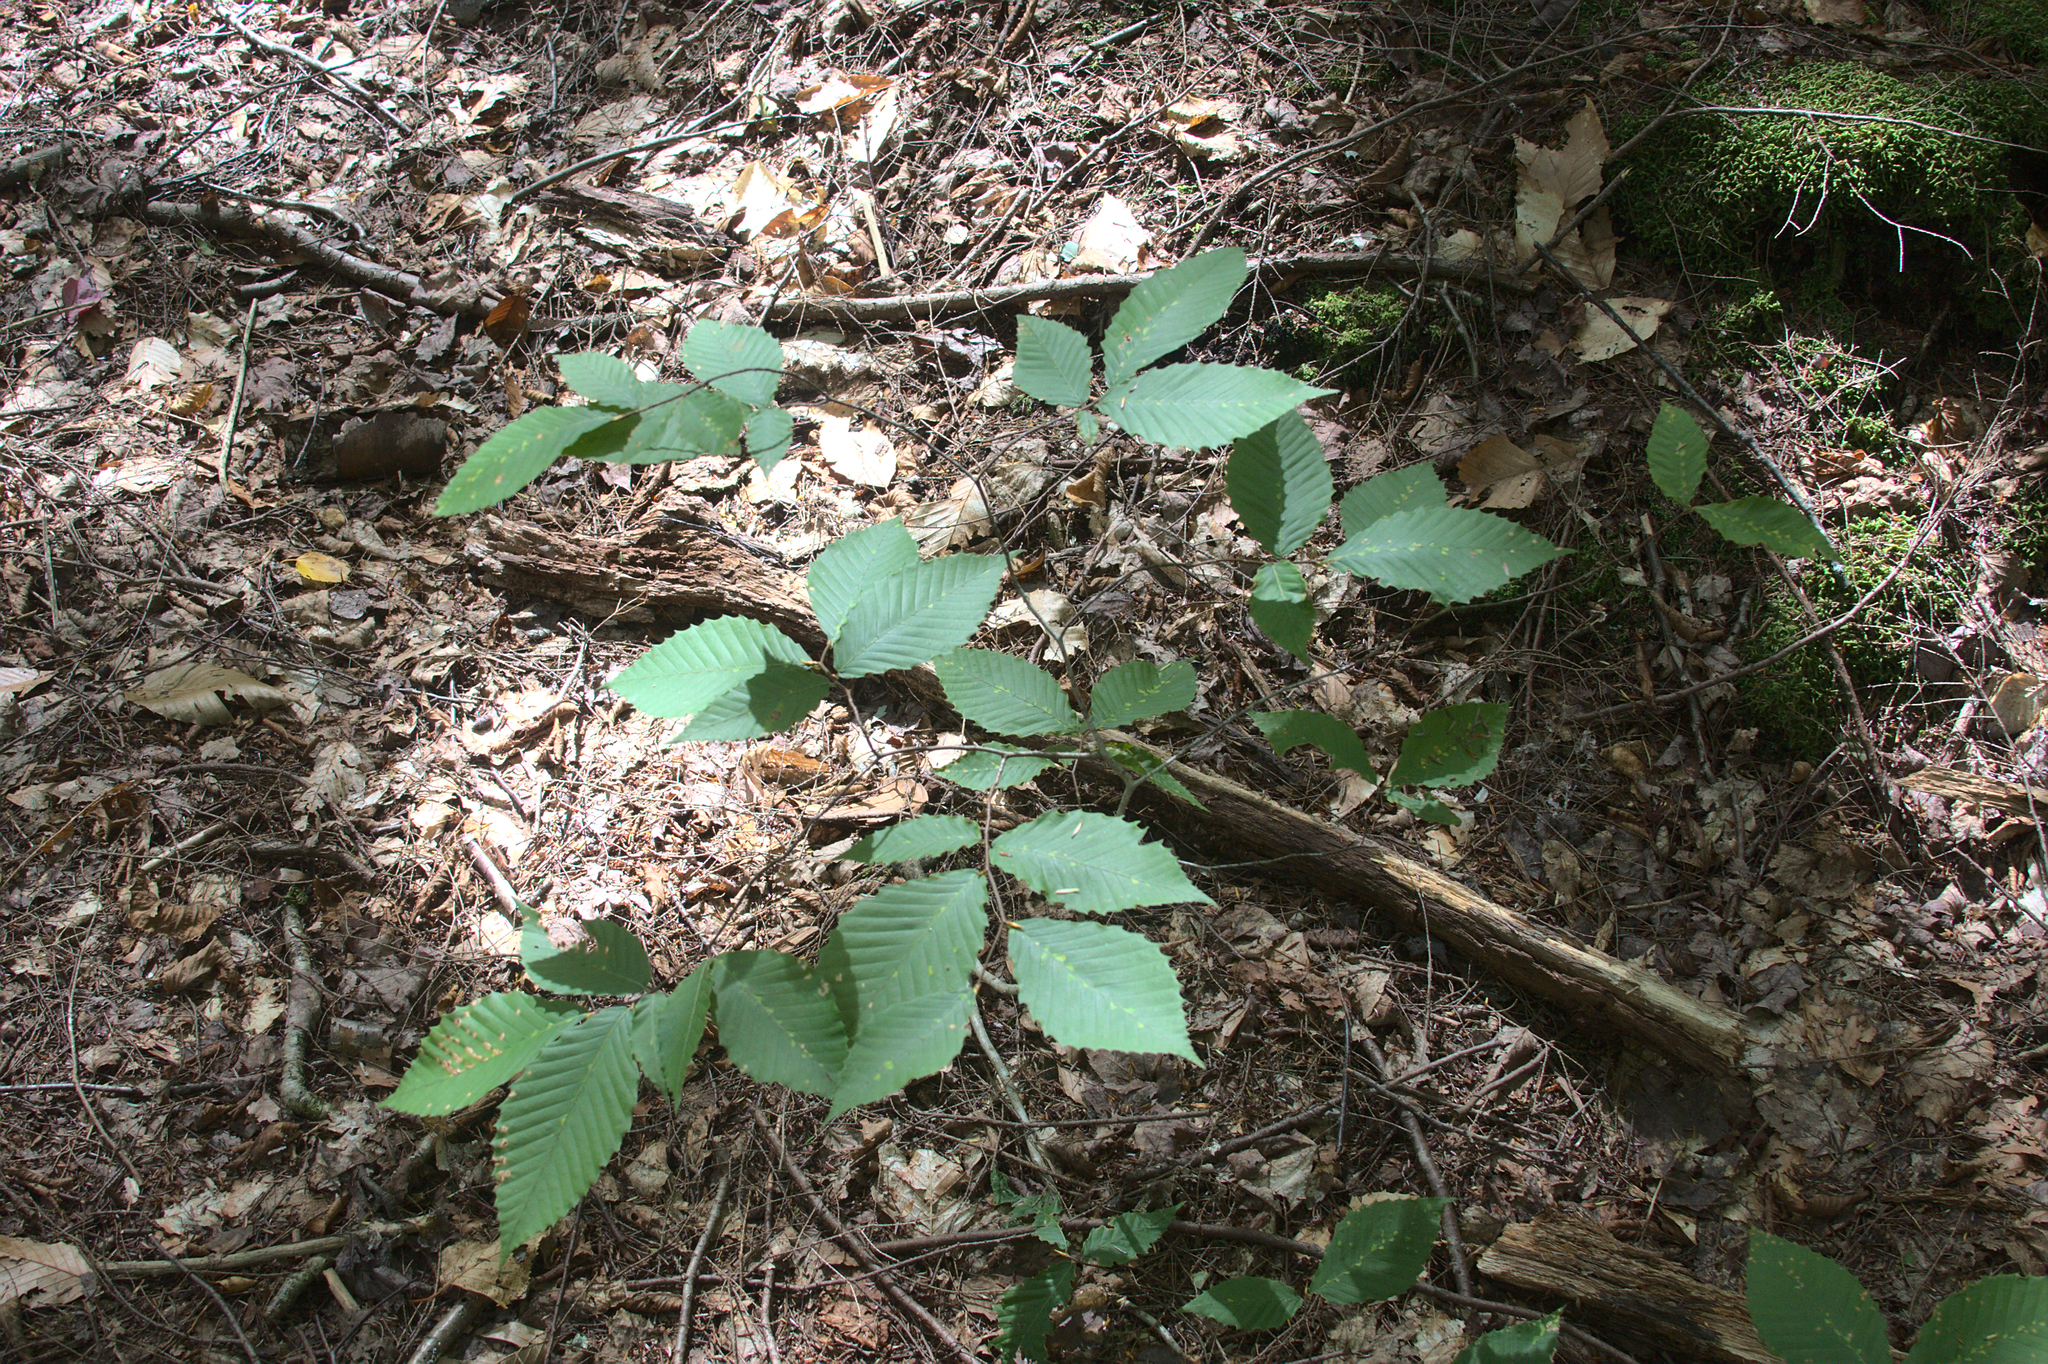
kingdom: Plantae
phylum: Tracheophyta
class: Magnoliopsida
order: Fagales
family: Fagaceae
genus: Fagus
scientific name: Fagus grandifolia
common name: American beech
